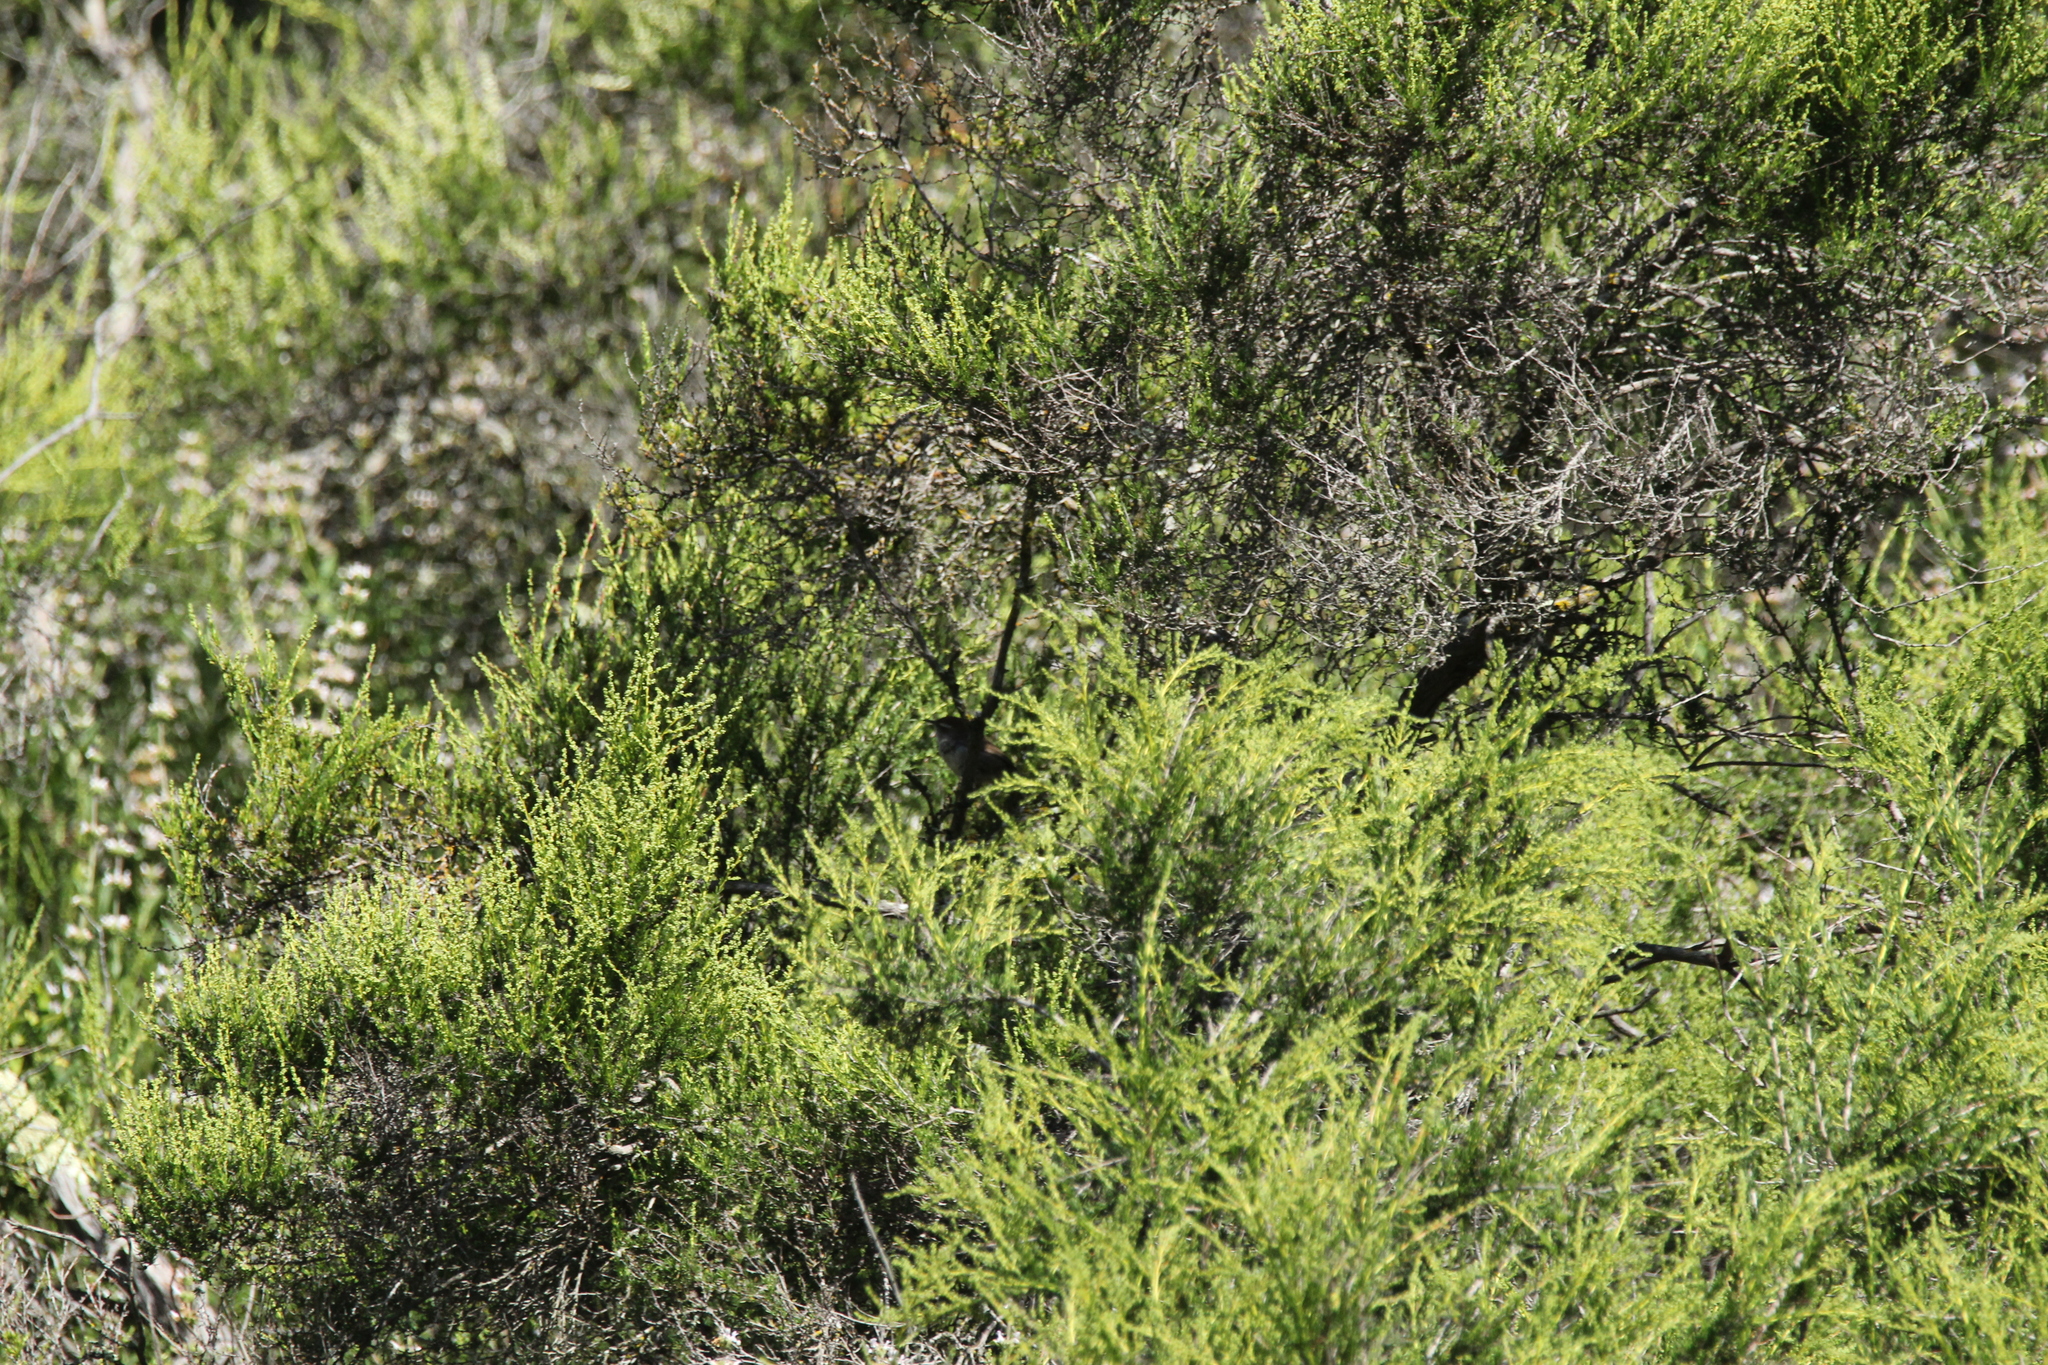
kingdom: Animalia
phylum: Chordata
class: Aves
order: Passeriformes
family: Troglodytidae
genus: Thryomanes
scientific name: Thryomanes bewickii
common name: Bewick's wren
